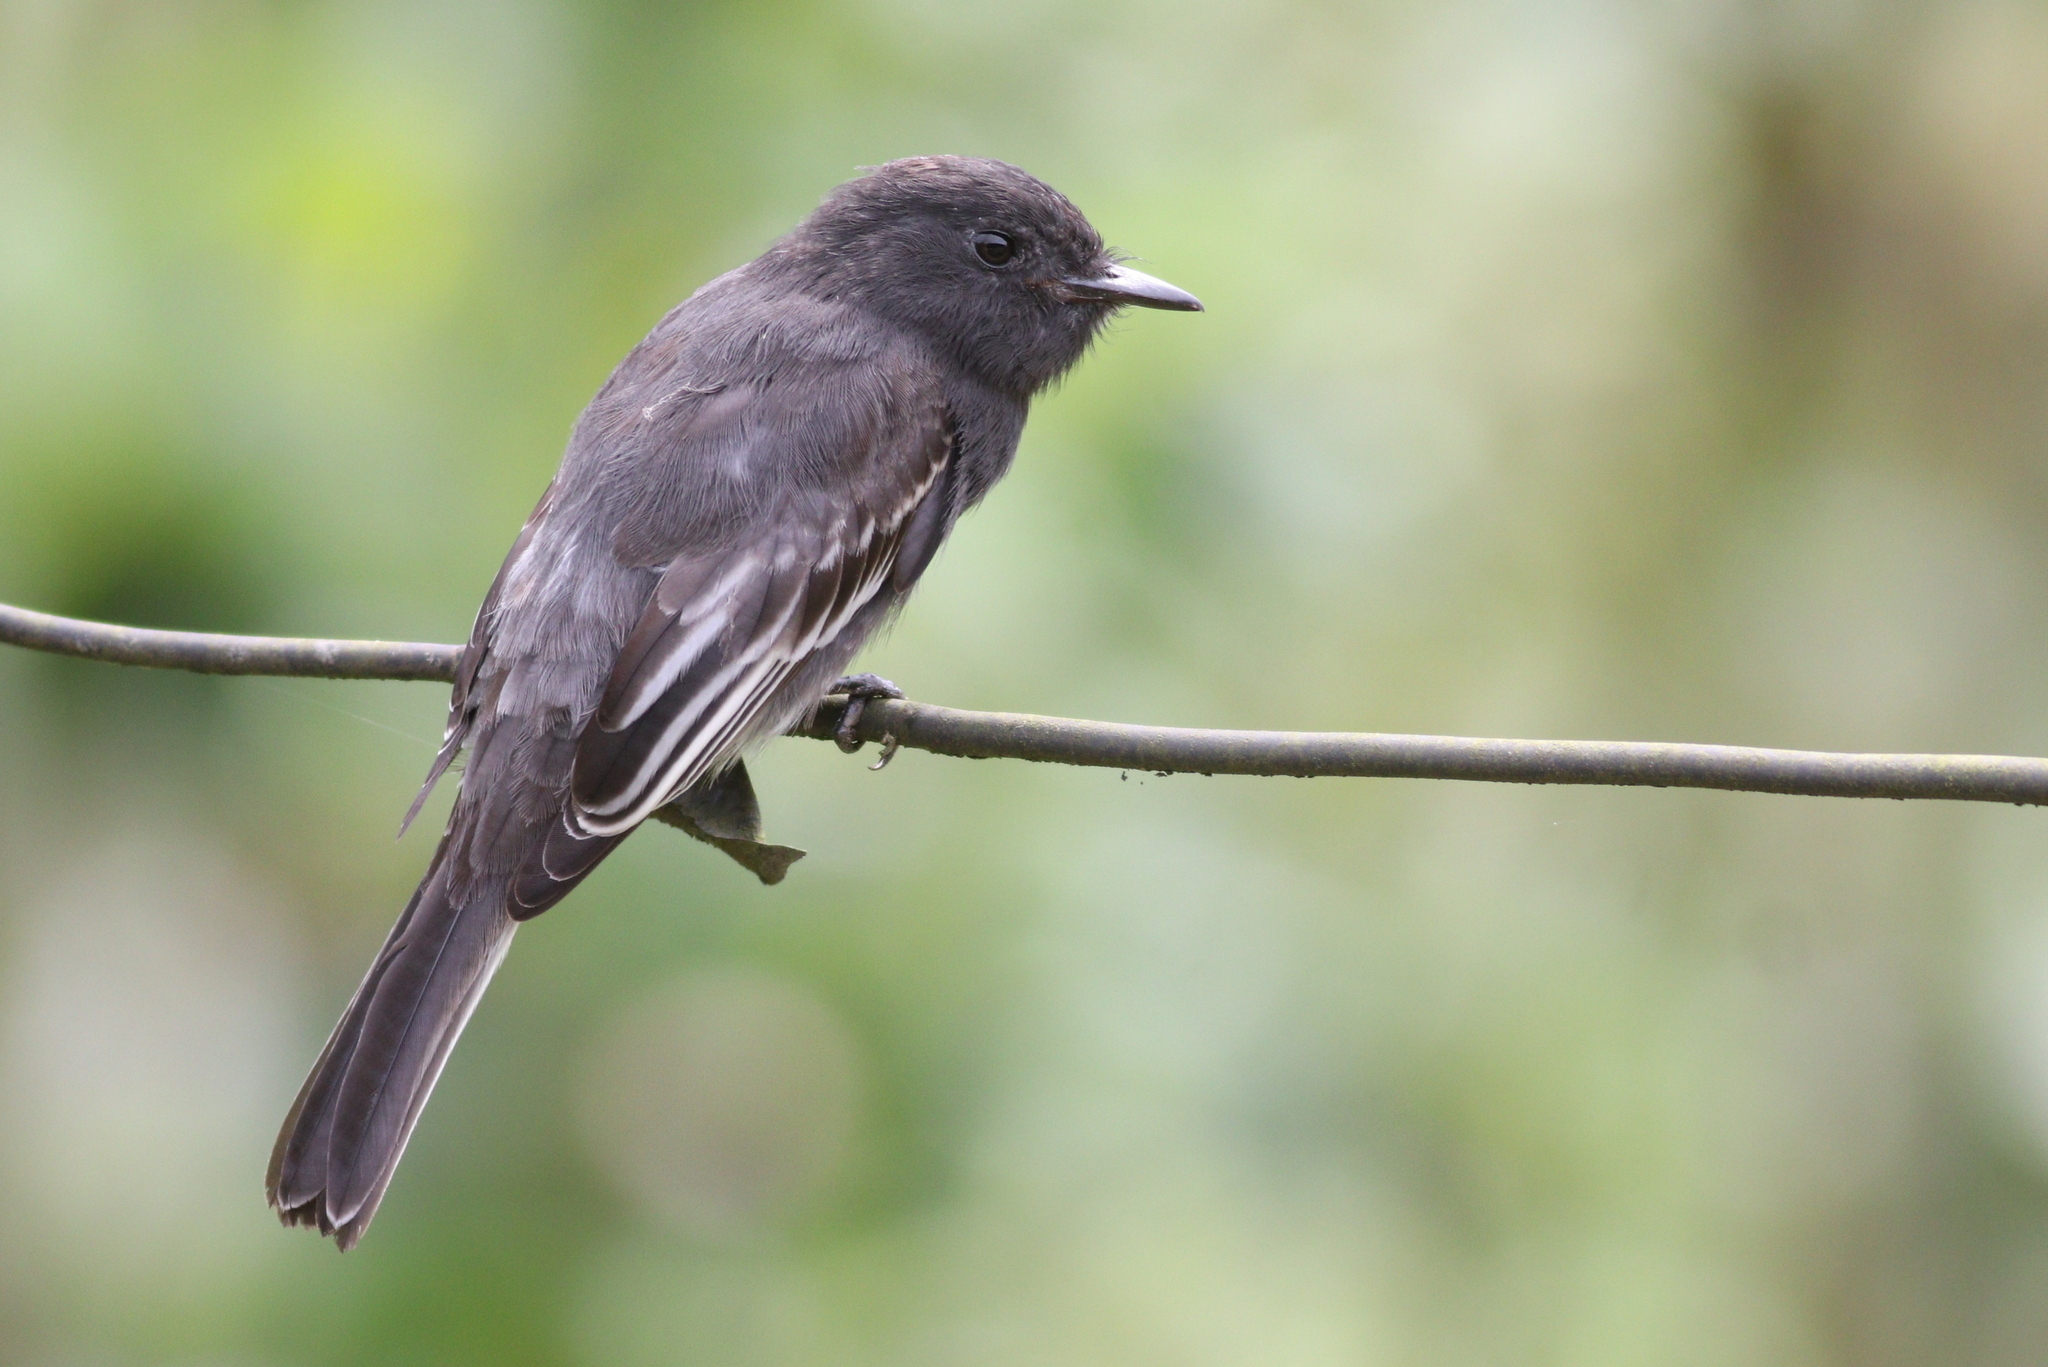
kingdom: Animalia
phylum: Chordata
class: Aves
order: Passeriformes
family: Tyrannidae
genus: Sayornis
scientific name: Sayornis nigricans
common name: Black phoebe
